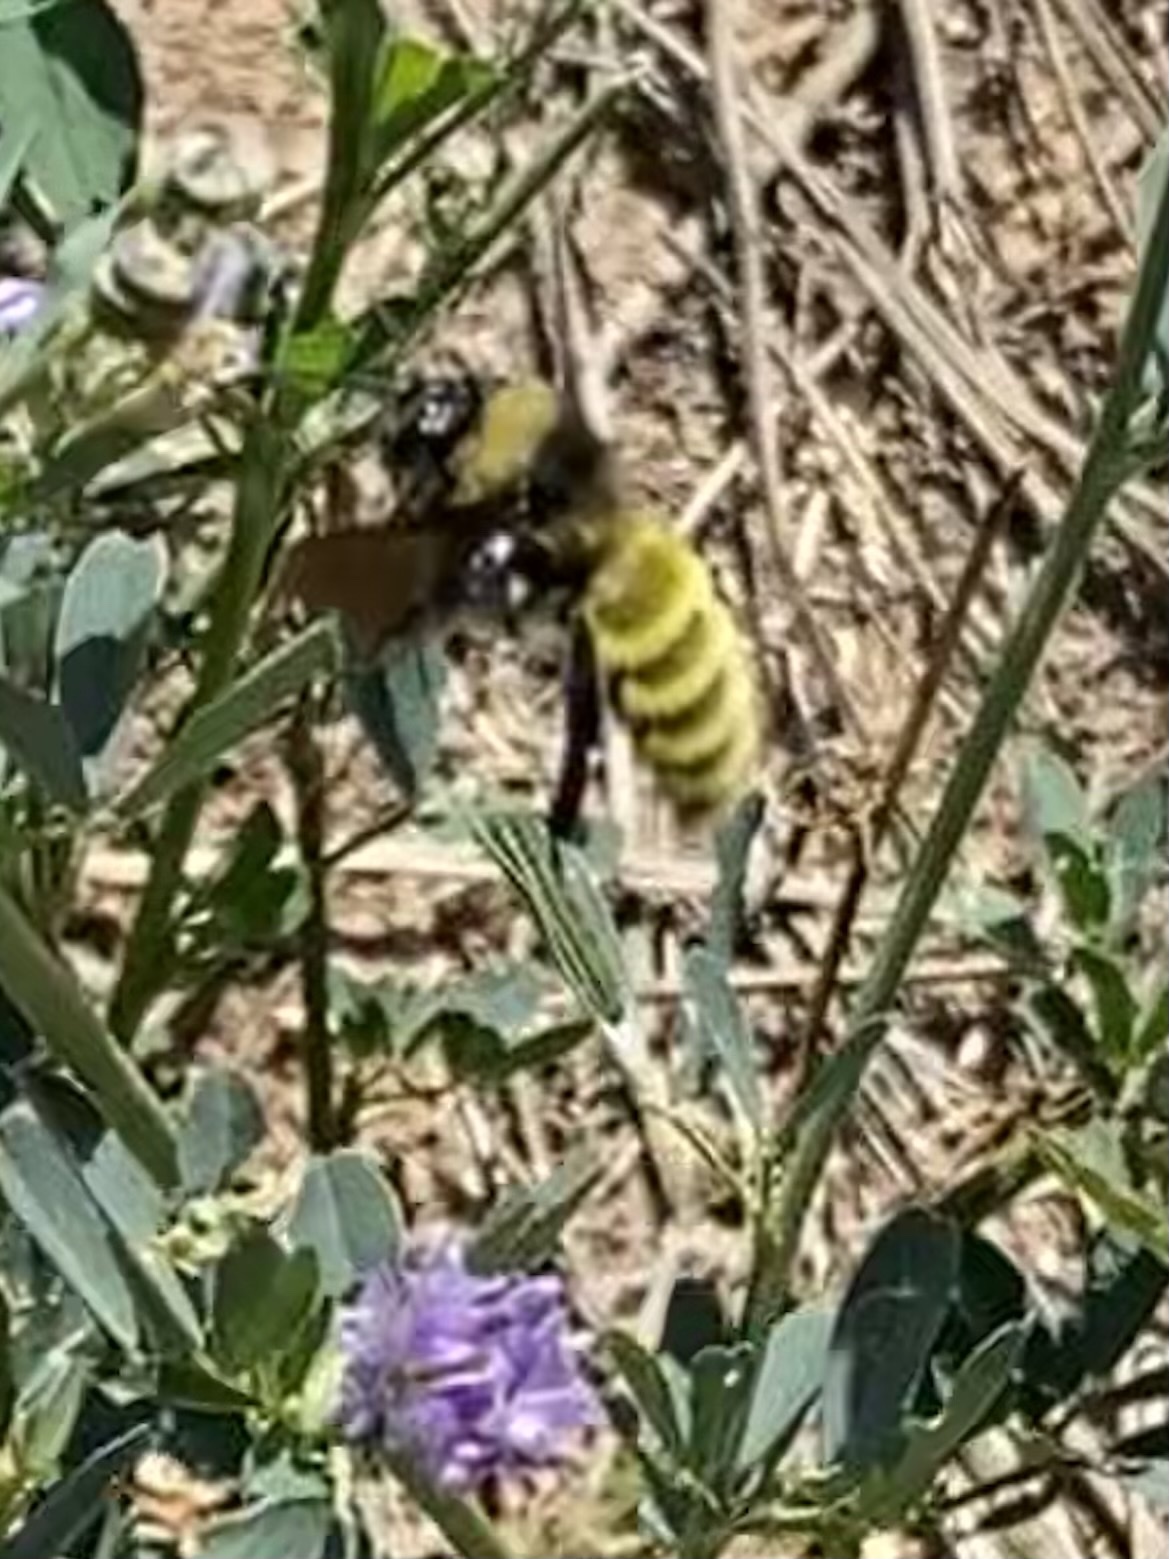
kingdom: Animalia
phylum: Arthropoda
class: Insecta
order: Hymenoptera
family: Apidae
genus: Bombus
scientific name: Bombus pensylvanicus
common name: Bumble bee
